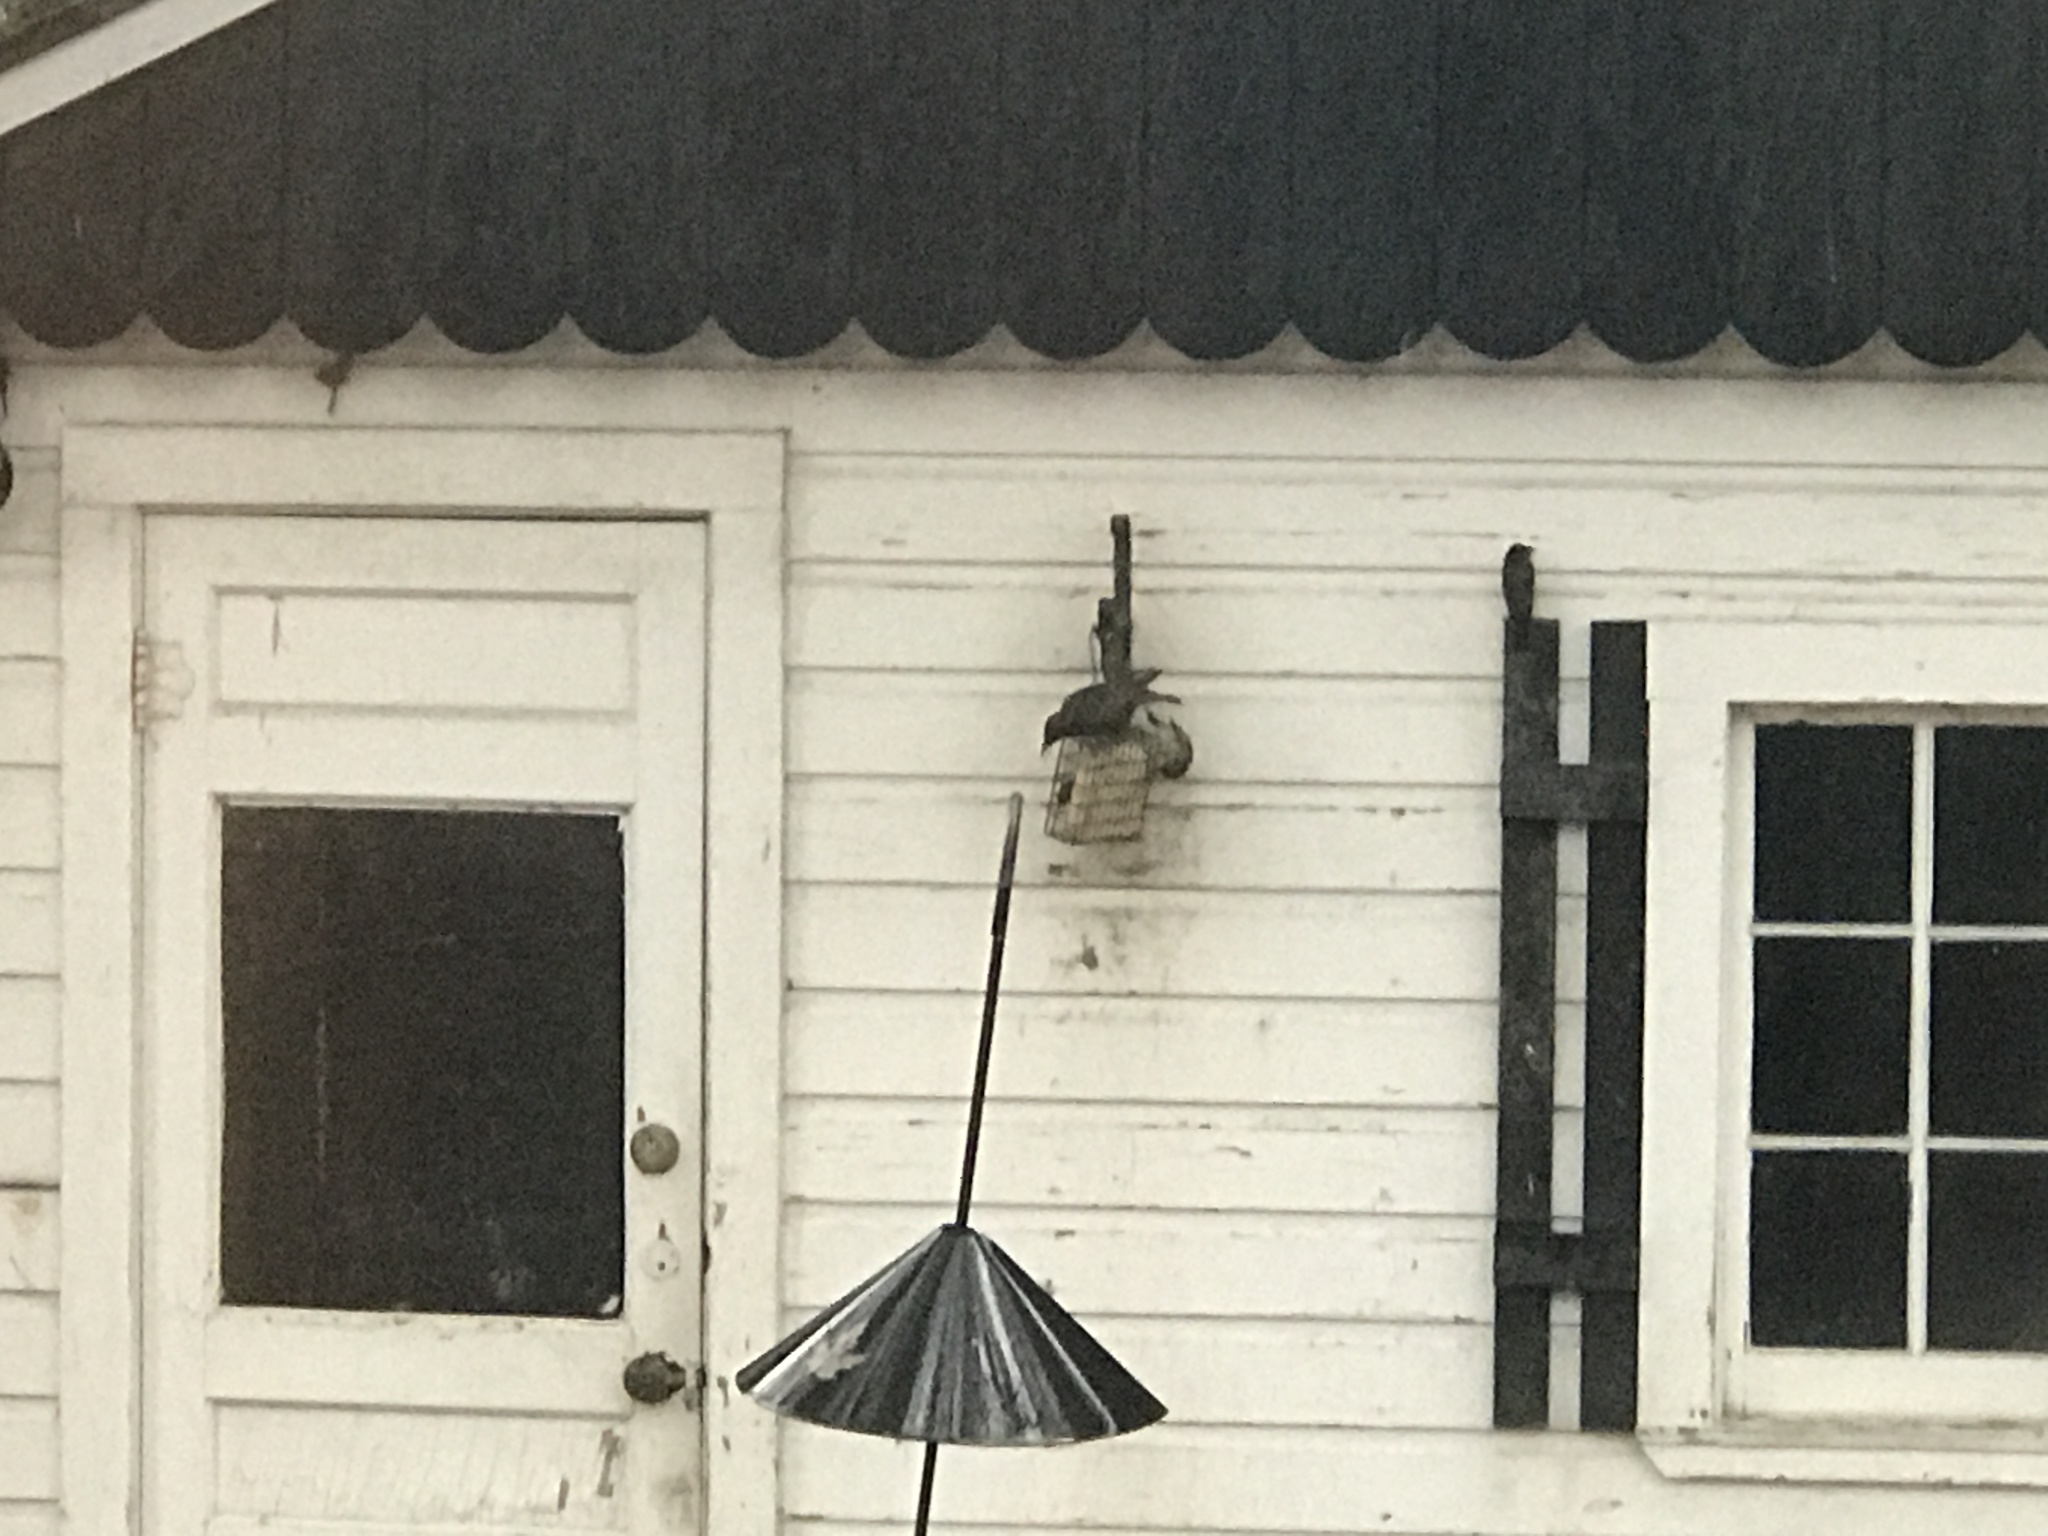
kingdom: Animalia
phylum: Chordata
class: Aves
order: Passeriformes
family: Sturnidae
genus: Sturnus
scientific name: Sturnus vulgaris
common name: Common starling
